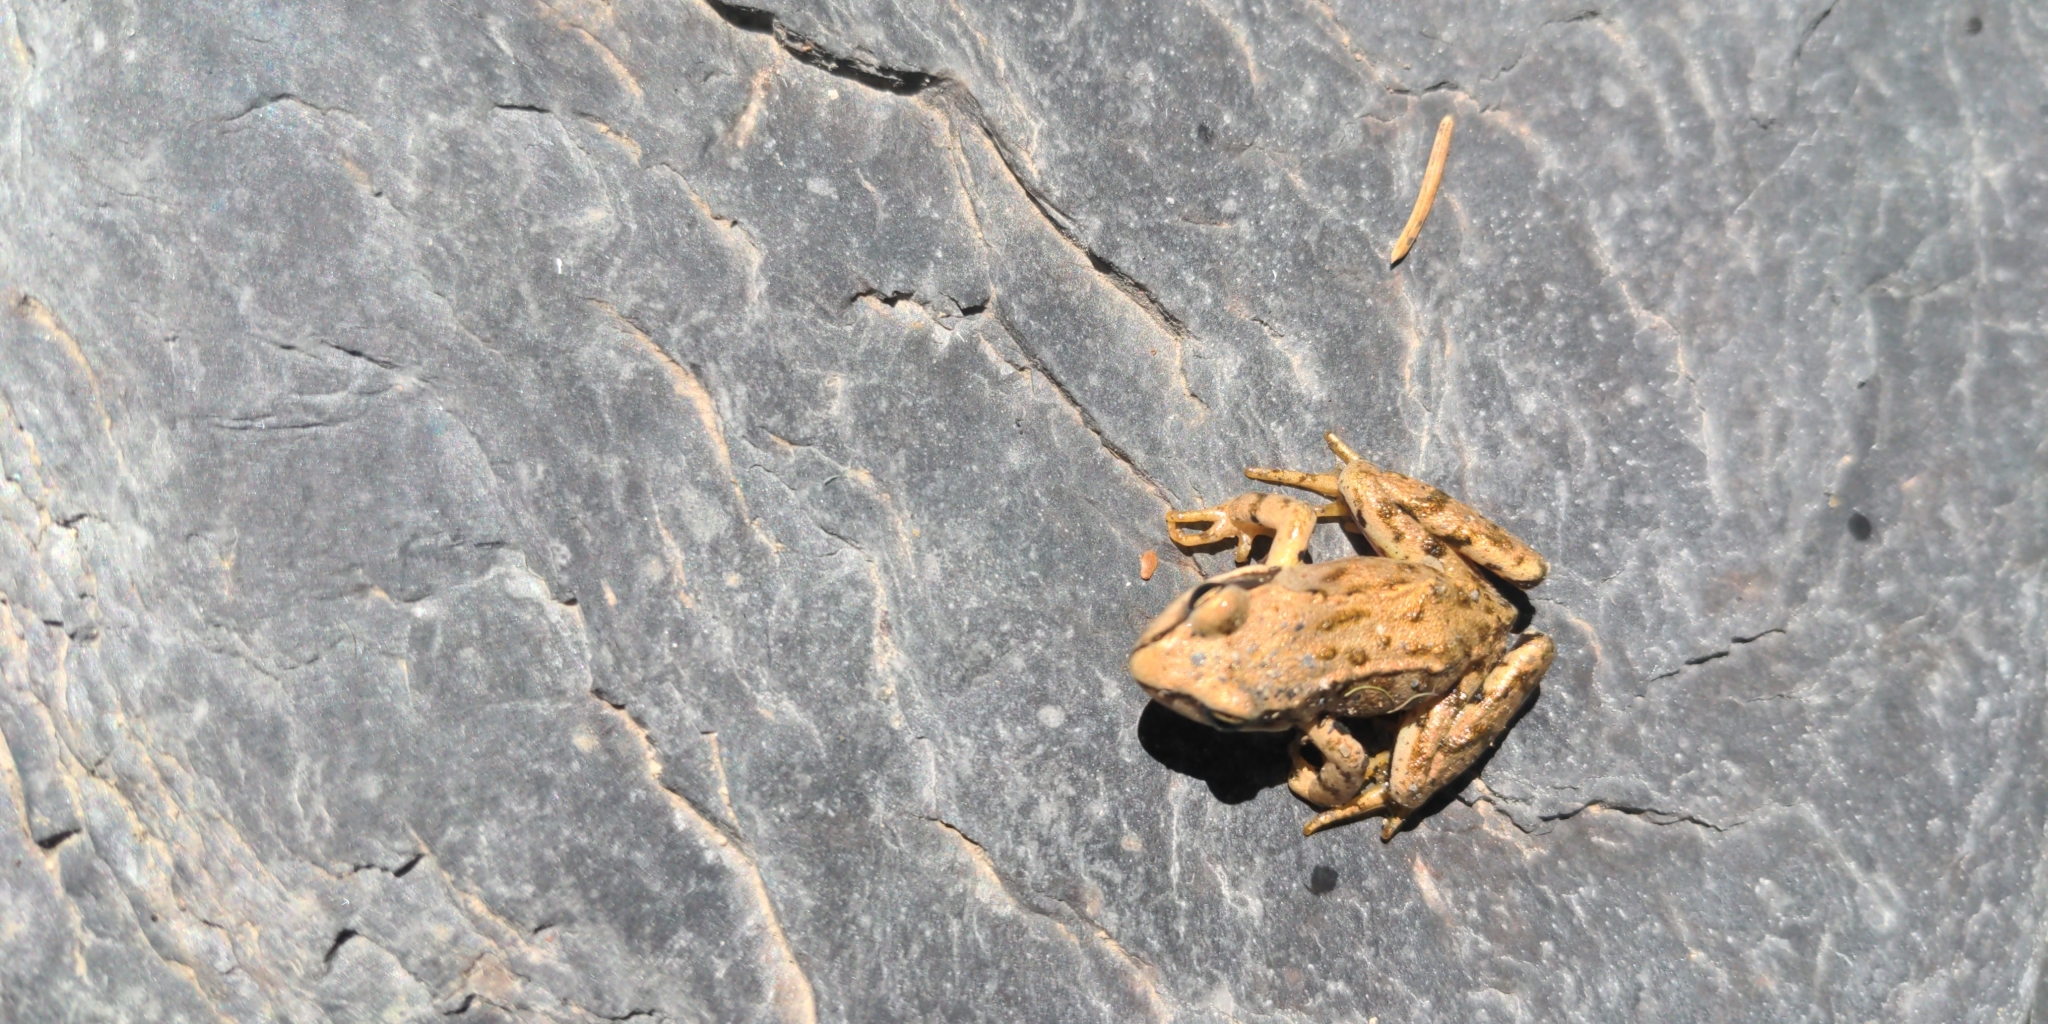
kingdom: Animalia
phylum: Chordata
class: Amphibia
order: Anura
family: Ranidae
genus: Rana
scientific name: Rana temporaria
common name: Common frog
